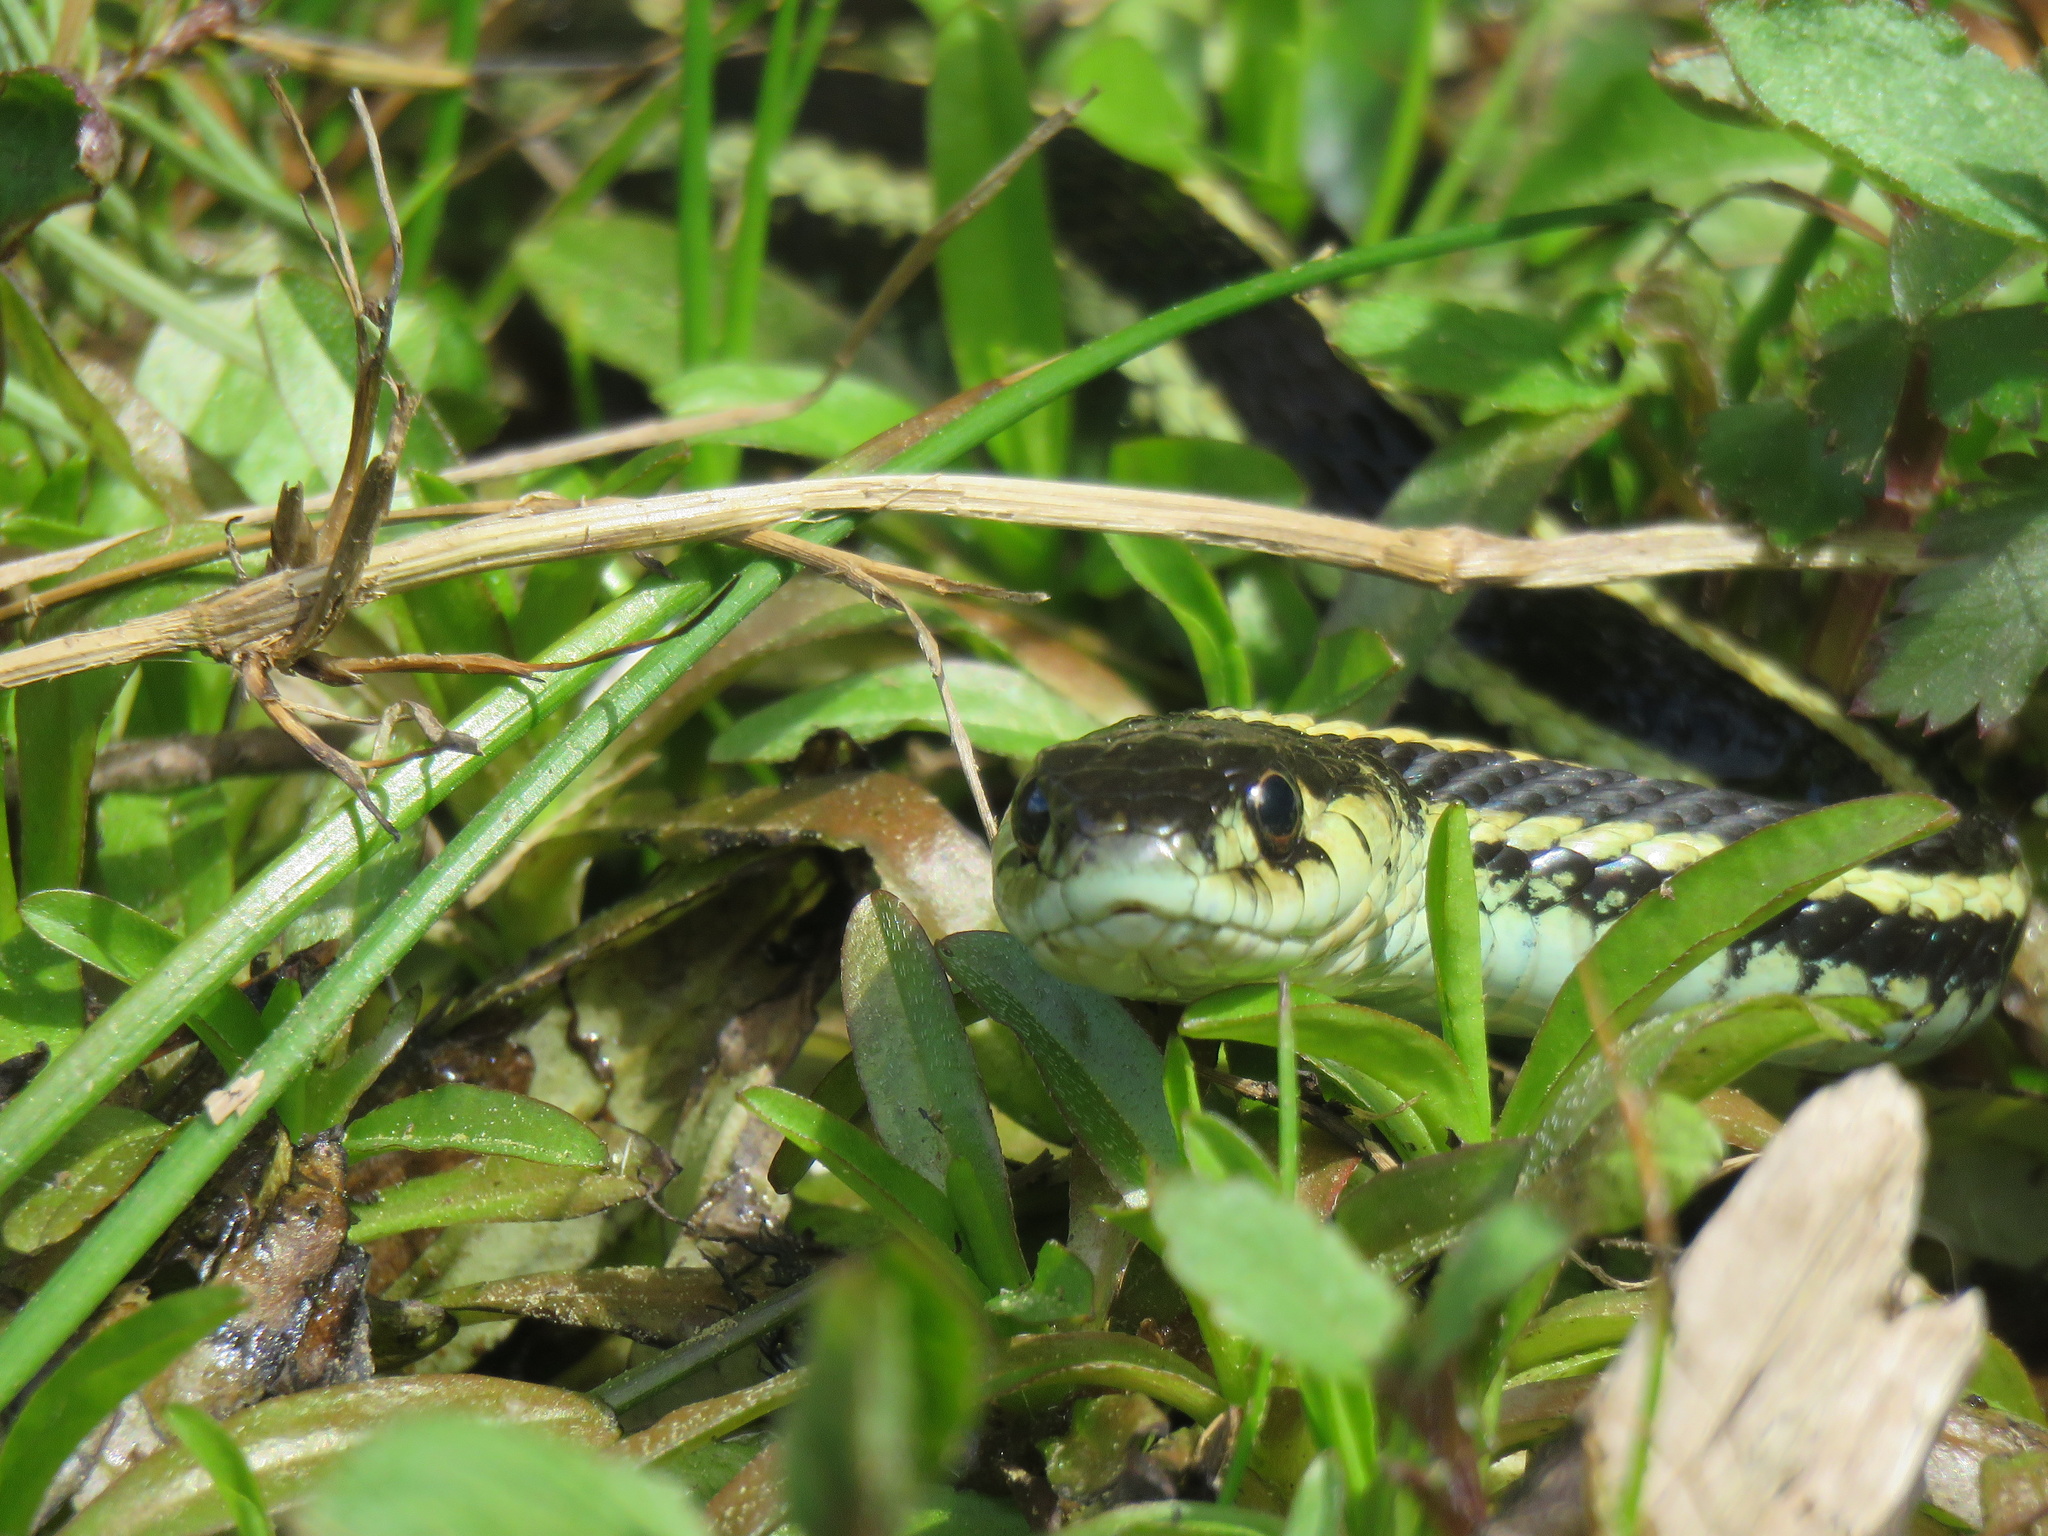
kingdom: Animalia
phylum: Chordata
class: Squamata
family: Colubridae
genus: Thamnophis
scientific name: Thamnophis sirtalis
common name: Common garter snake
